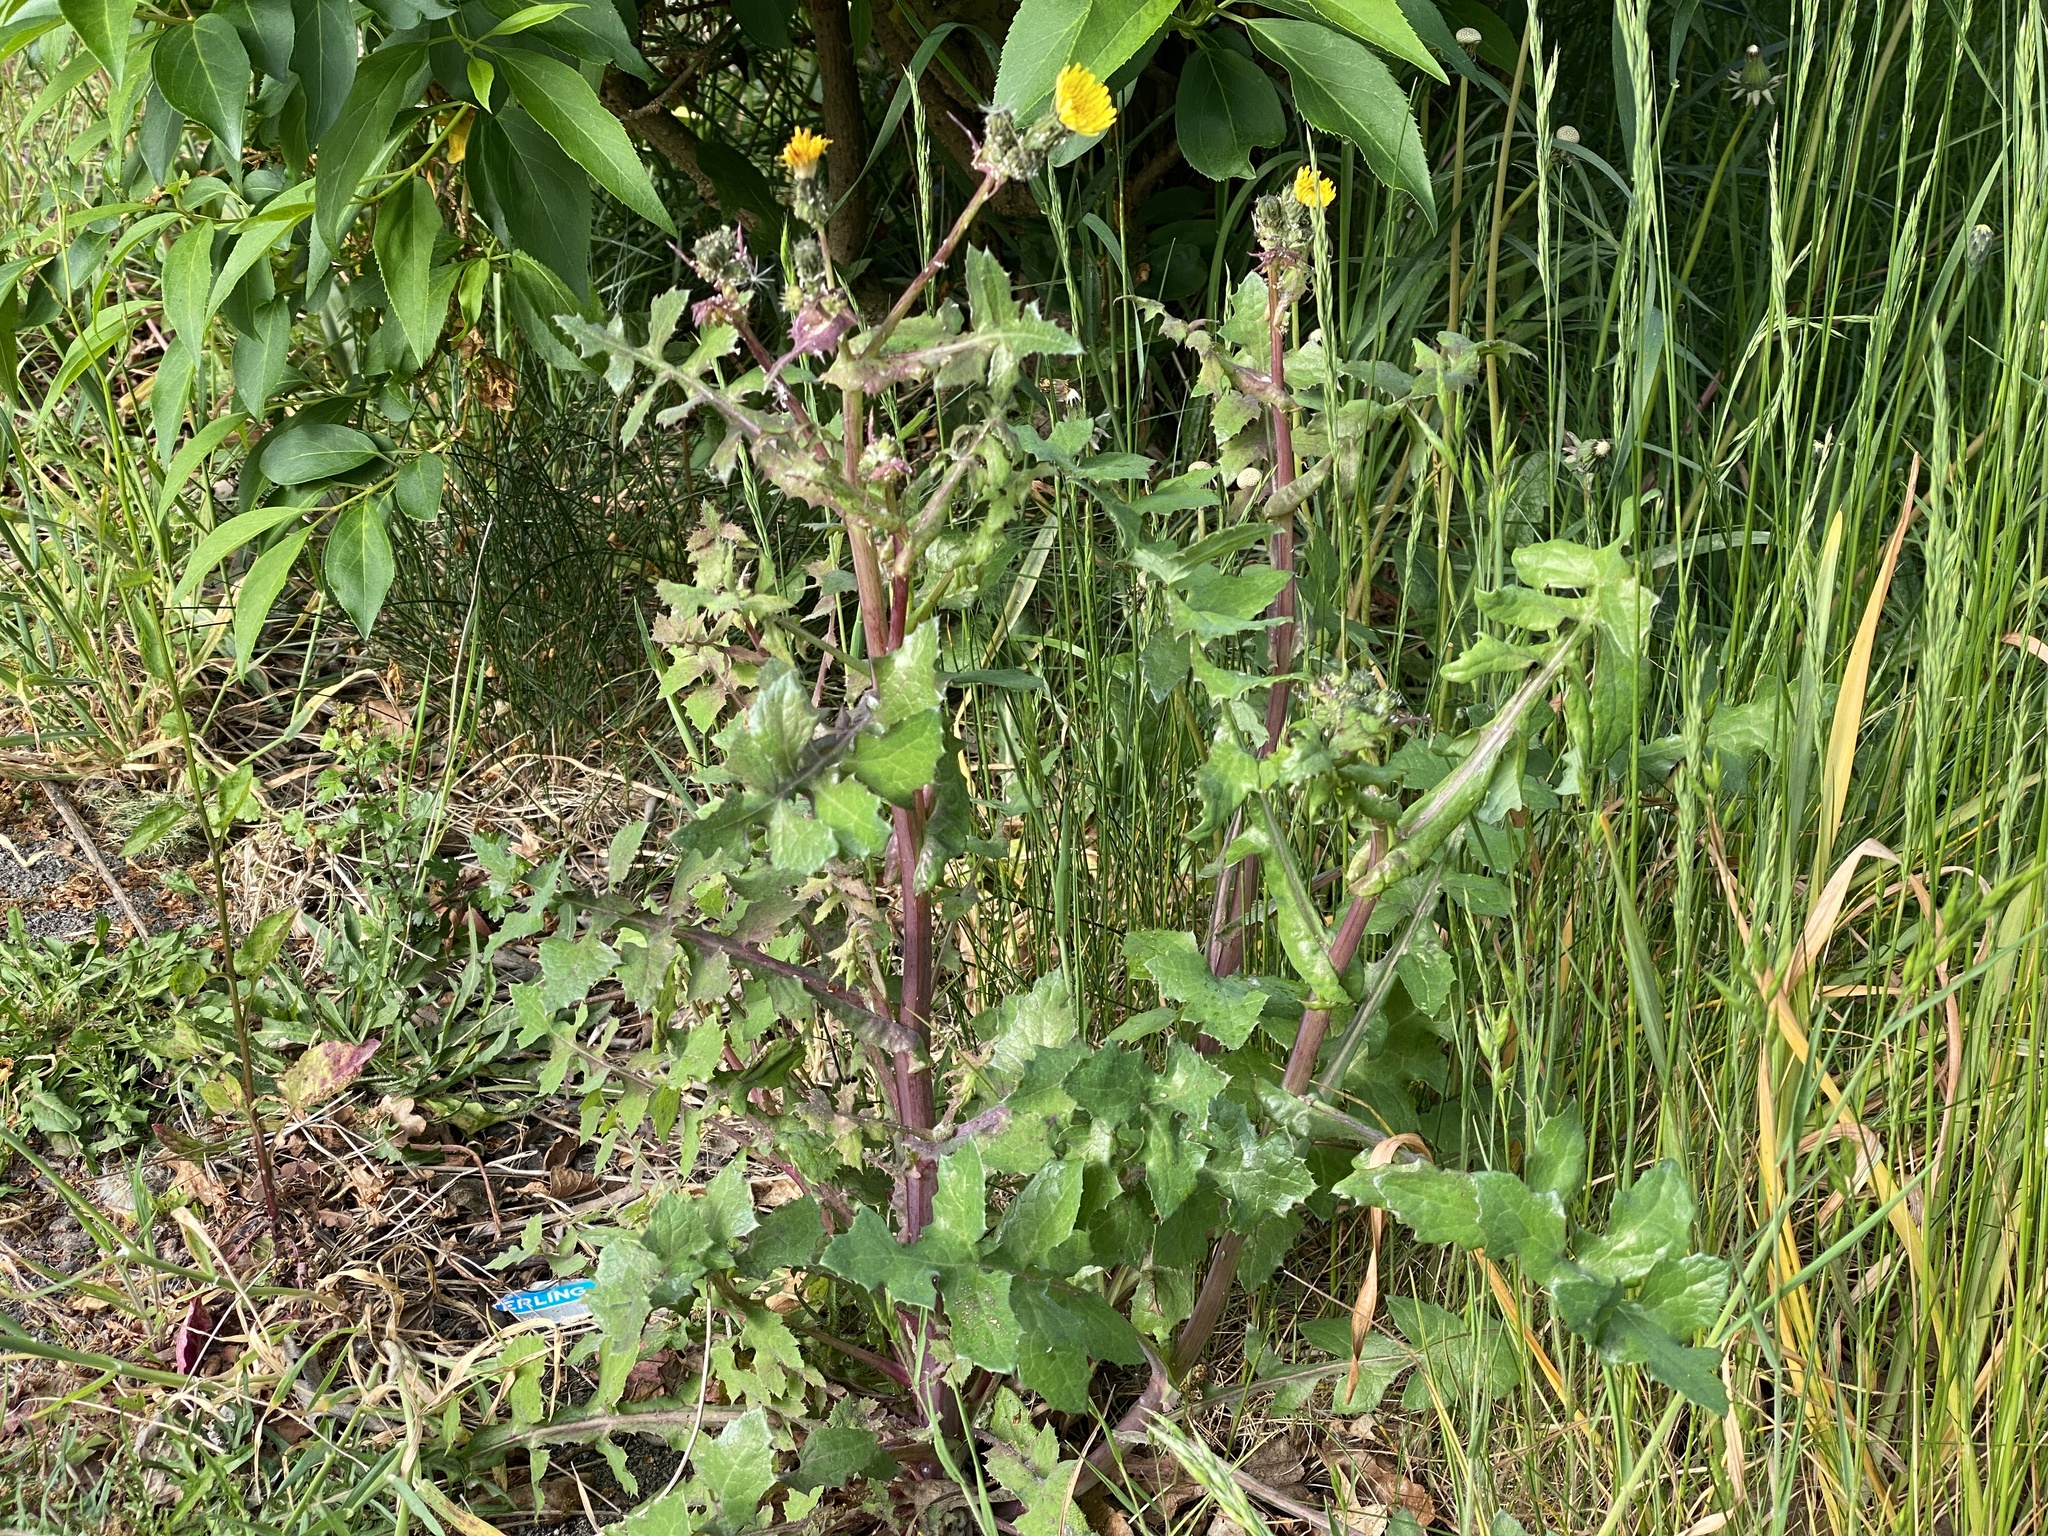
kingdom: Plantae
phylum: Tracheophyta
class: Magnoliopsida
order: Asterales
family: Asteraceae
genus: Sonchus
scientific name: Sonchus oleraceus
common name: Common sowthistle
